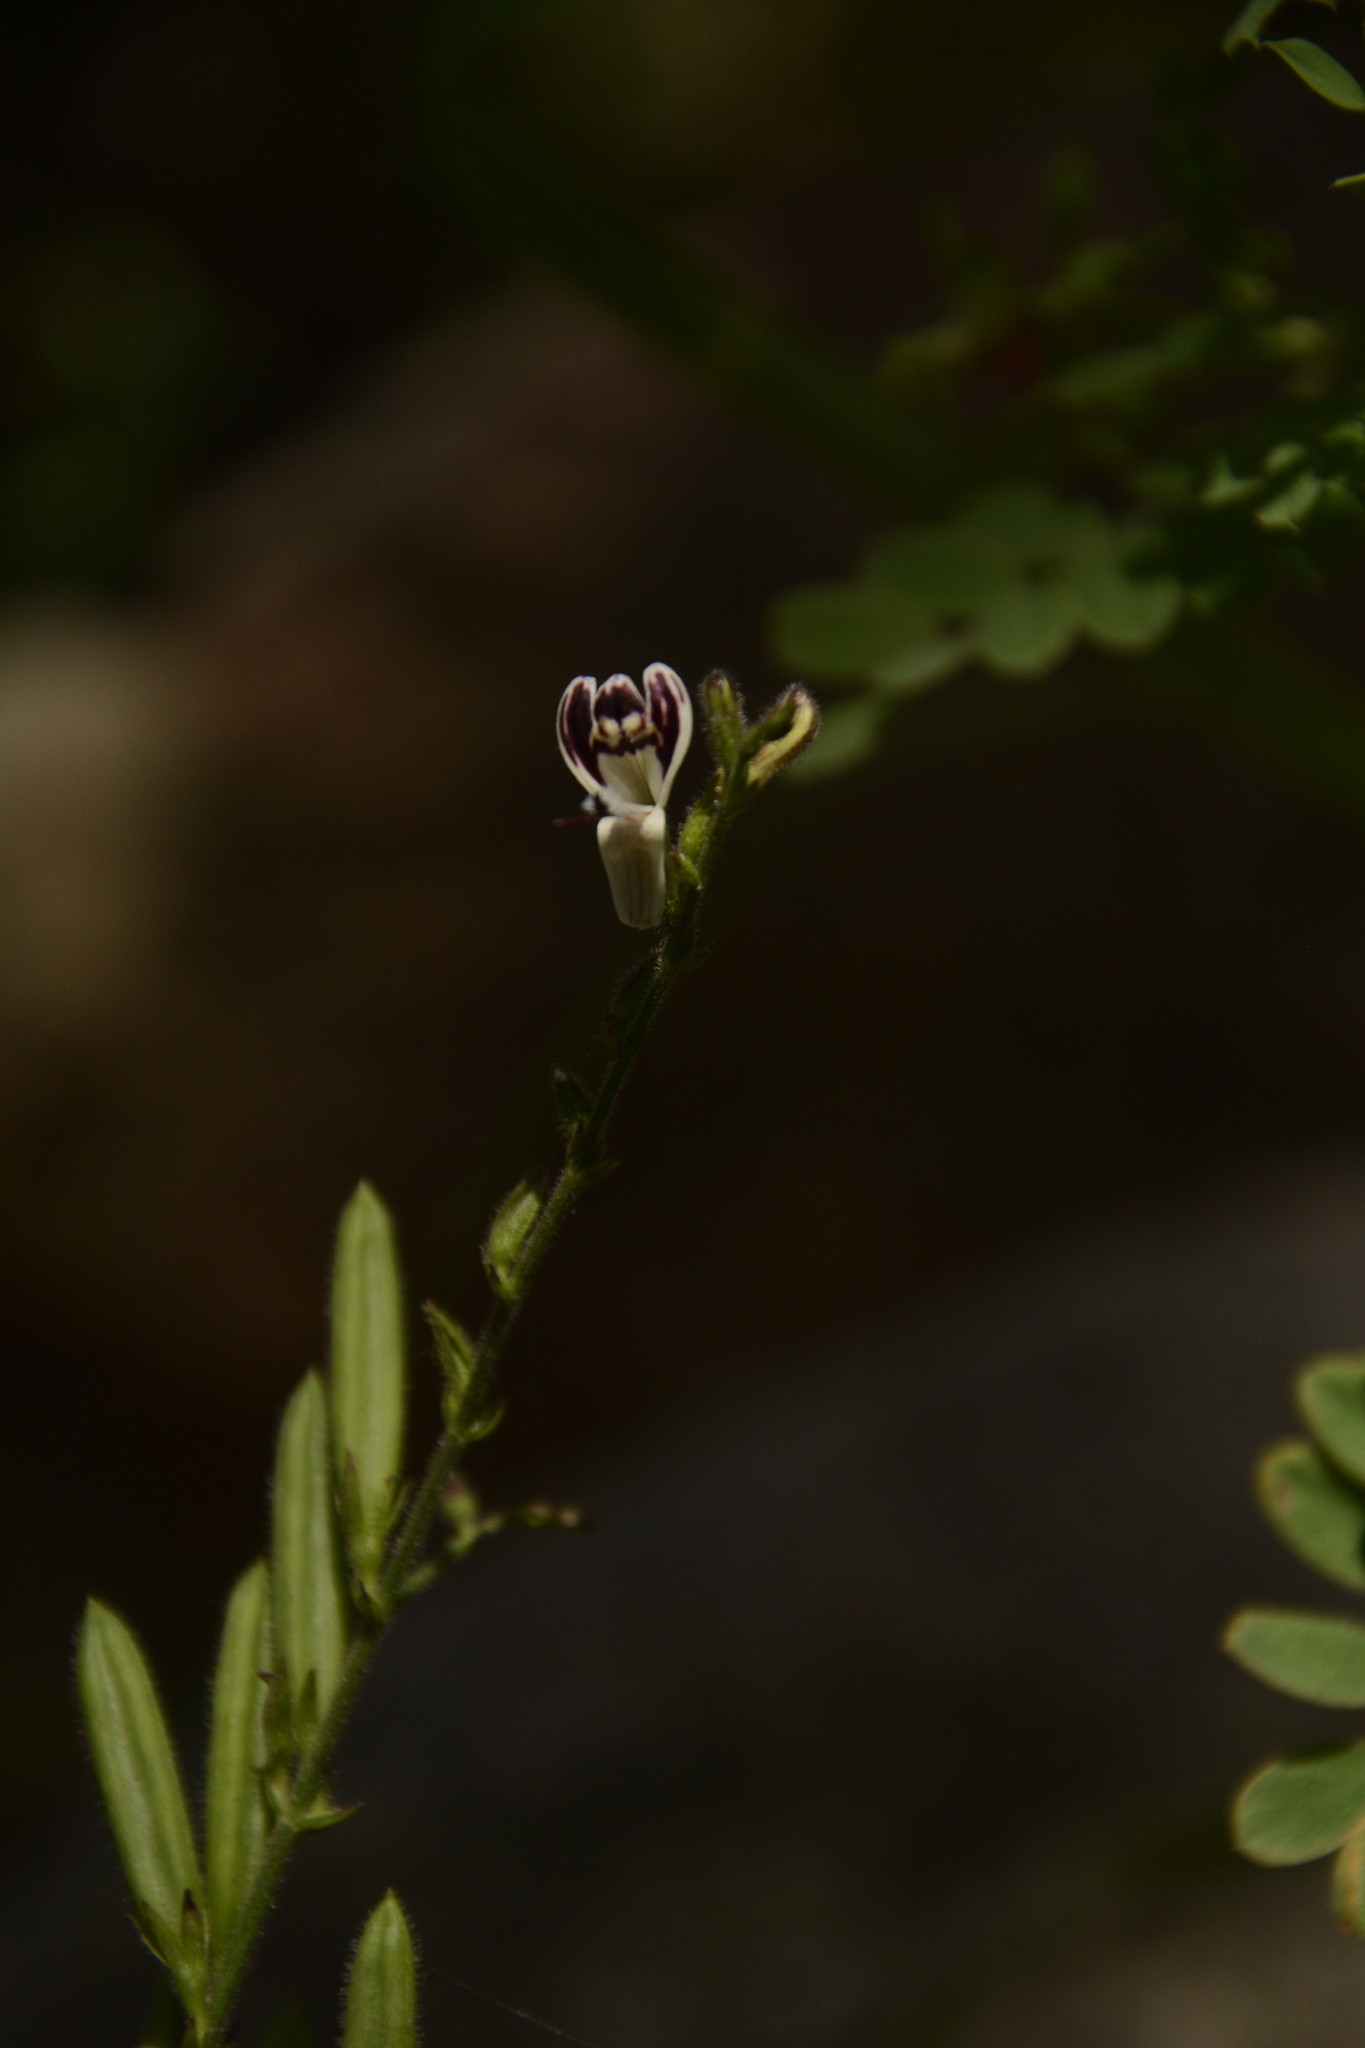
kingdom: Plantae
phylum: Tracheophyta
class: Magnoliopsida
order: Lamiales
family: Acanthaceae
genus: Andrographis
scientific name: Andrographis lineata
